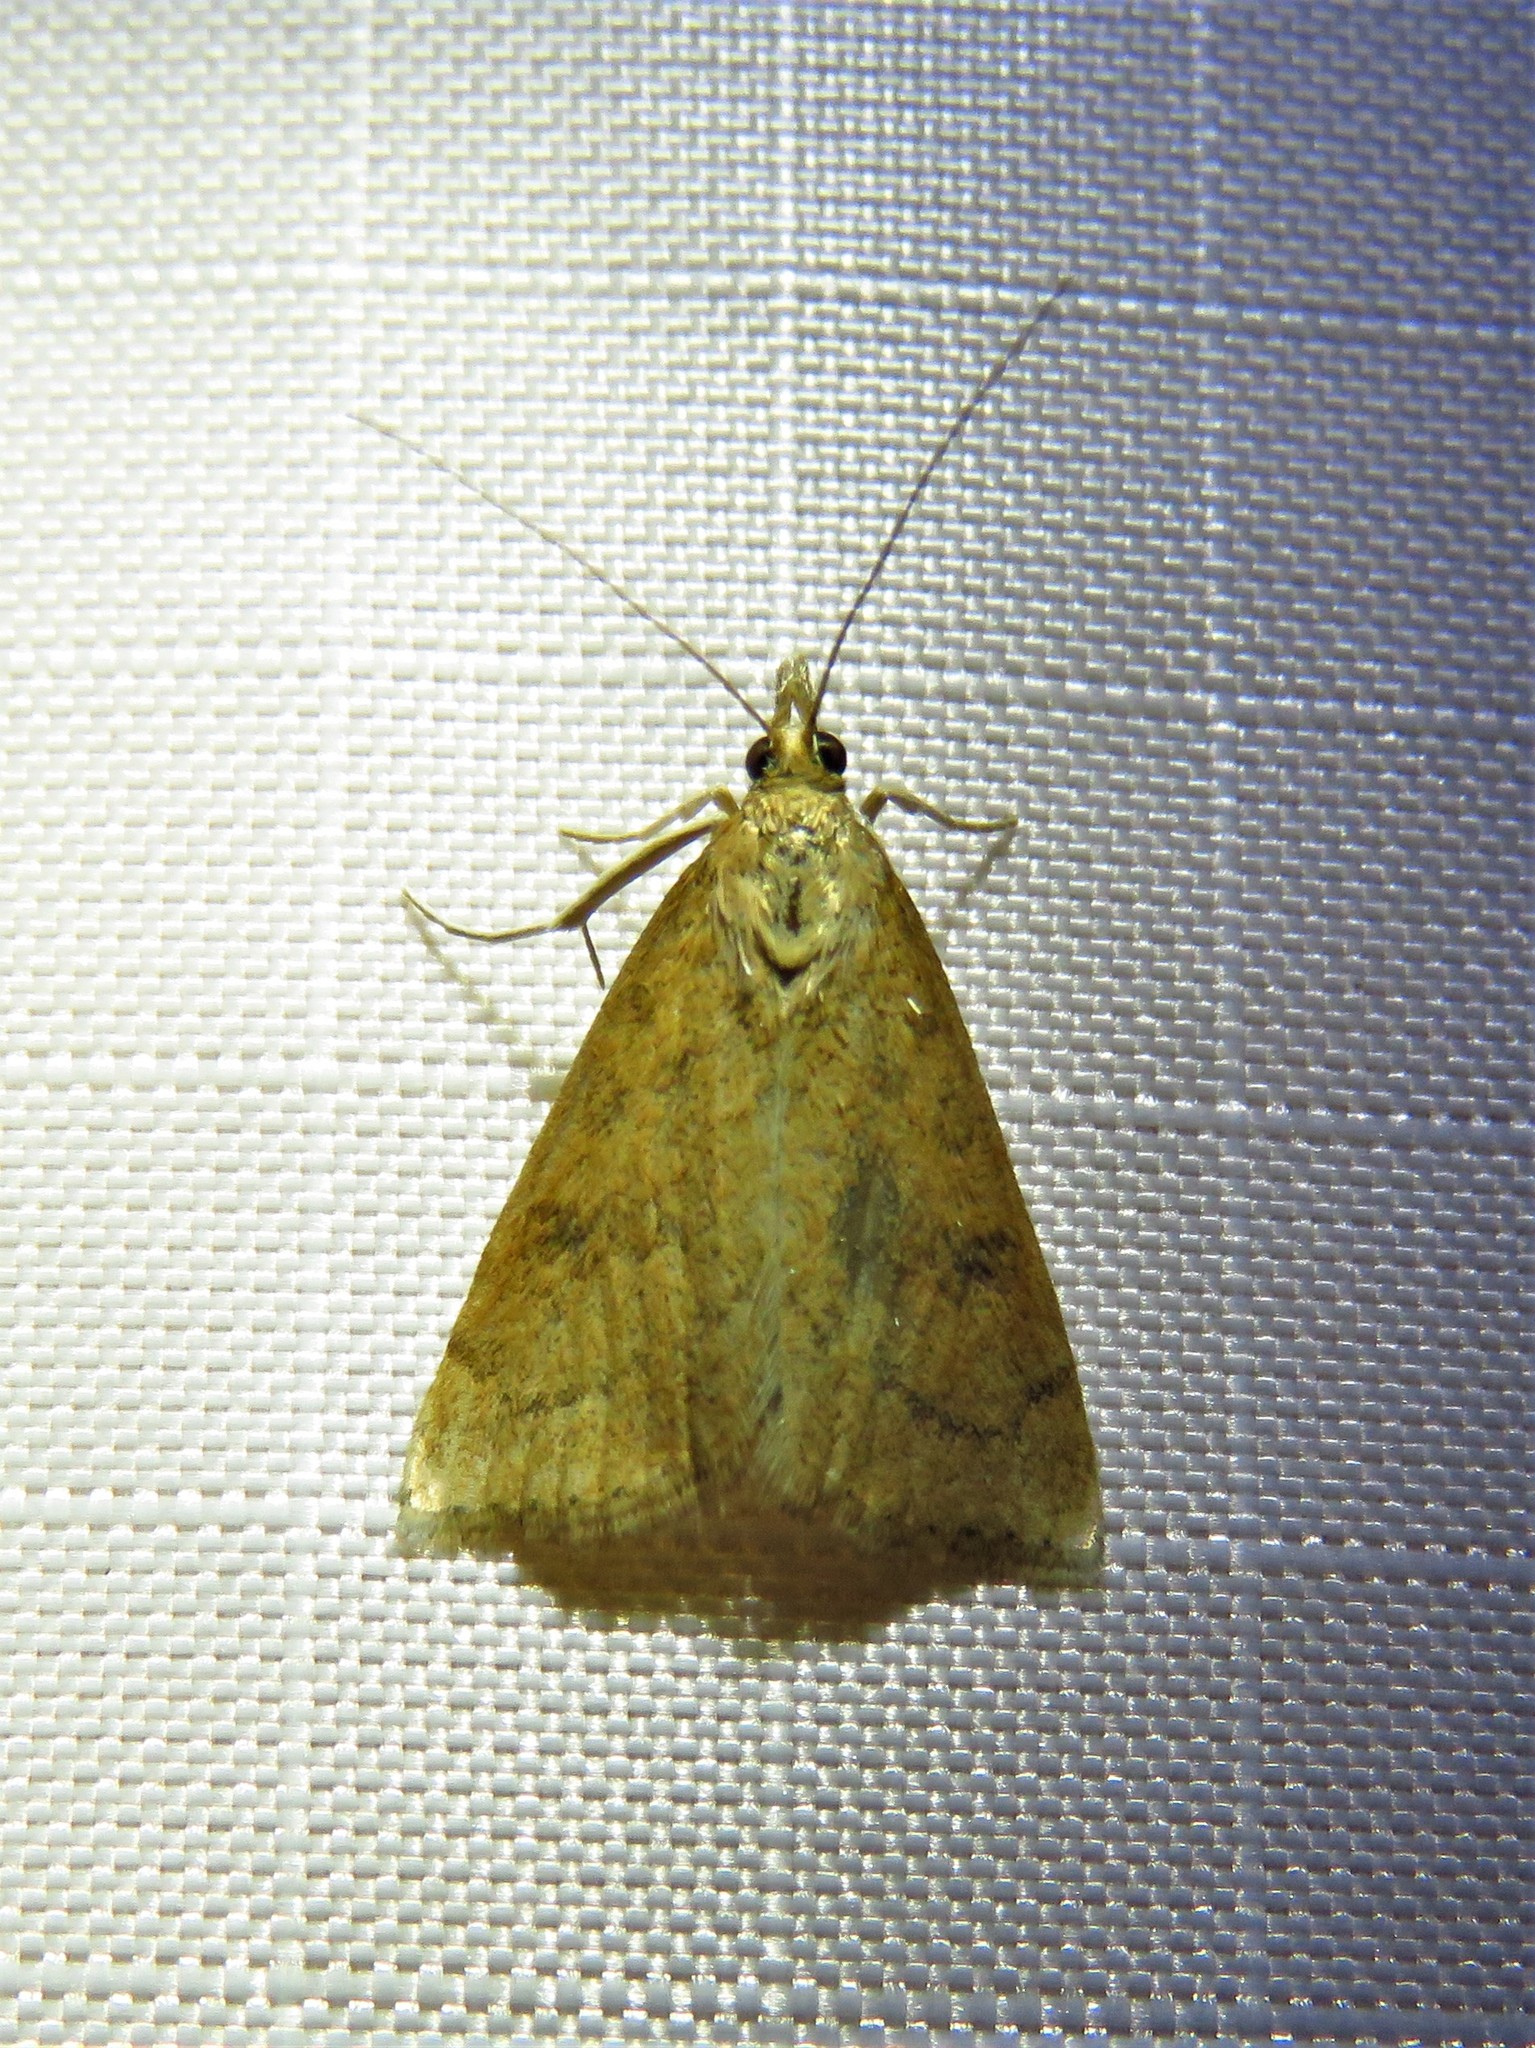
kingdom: Animalia
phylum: Arthropoda
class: Insecta
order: Lepidoptera
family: Crambidae
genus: Udea
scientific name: Udea rubigalis
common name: Celery leaftier moth
